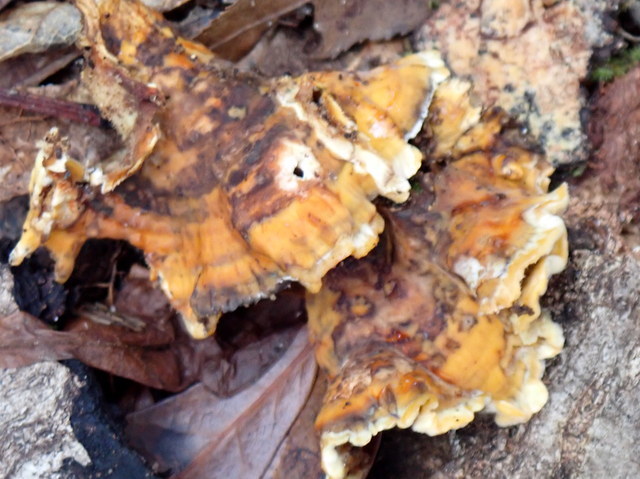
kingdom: Fungi
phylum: Basidiomycota
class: Agaricomycetes
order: Russulales
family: Stereaceae
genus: Stereum
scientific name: Stereum hirsutum
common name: Hairy curtain crust
